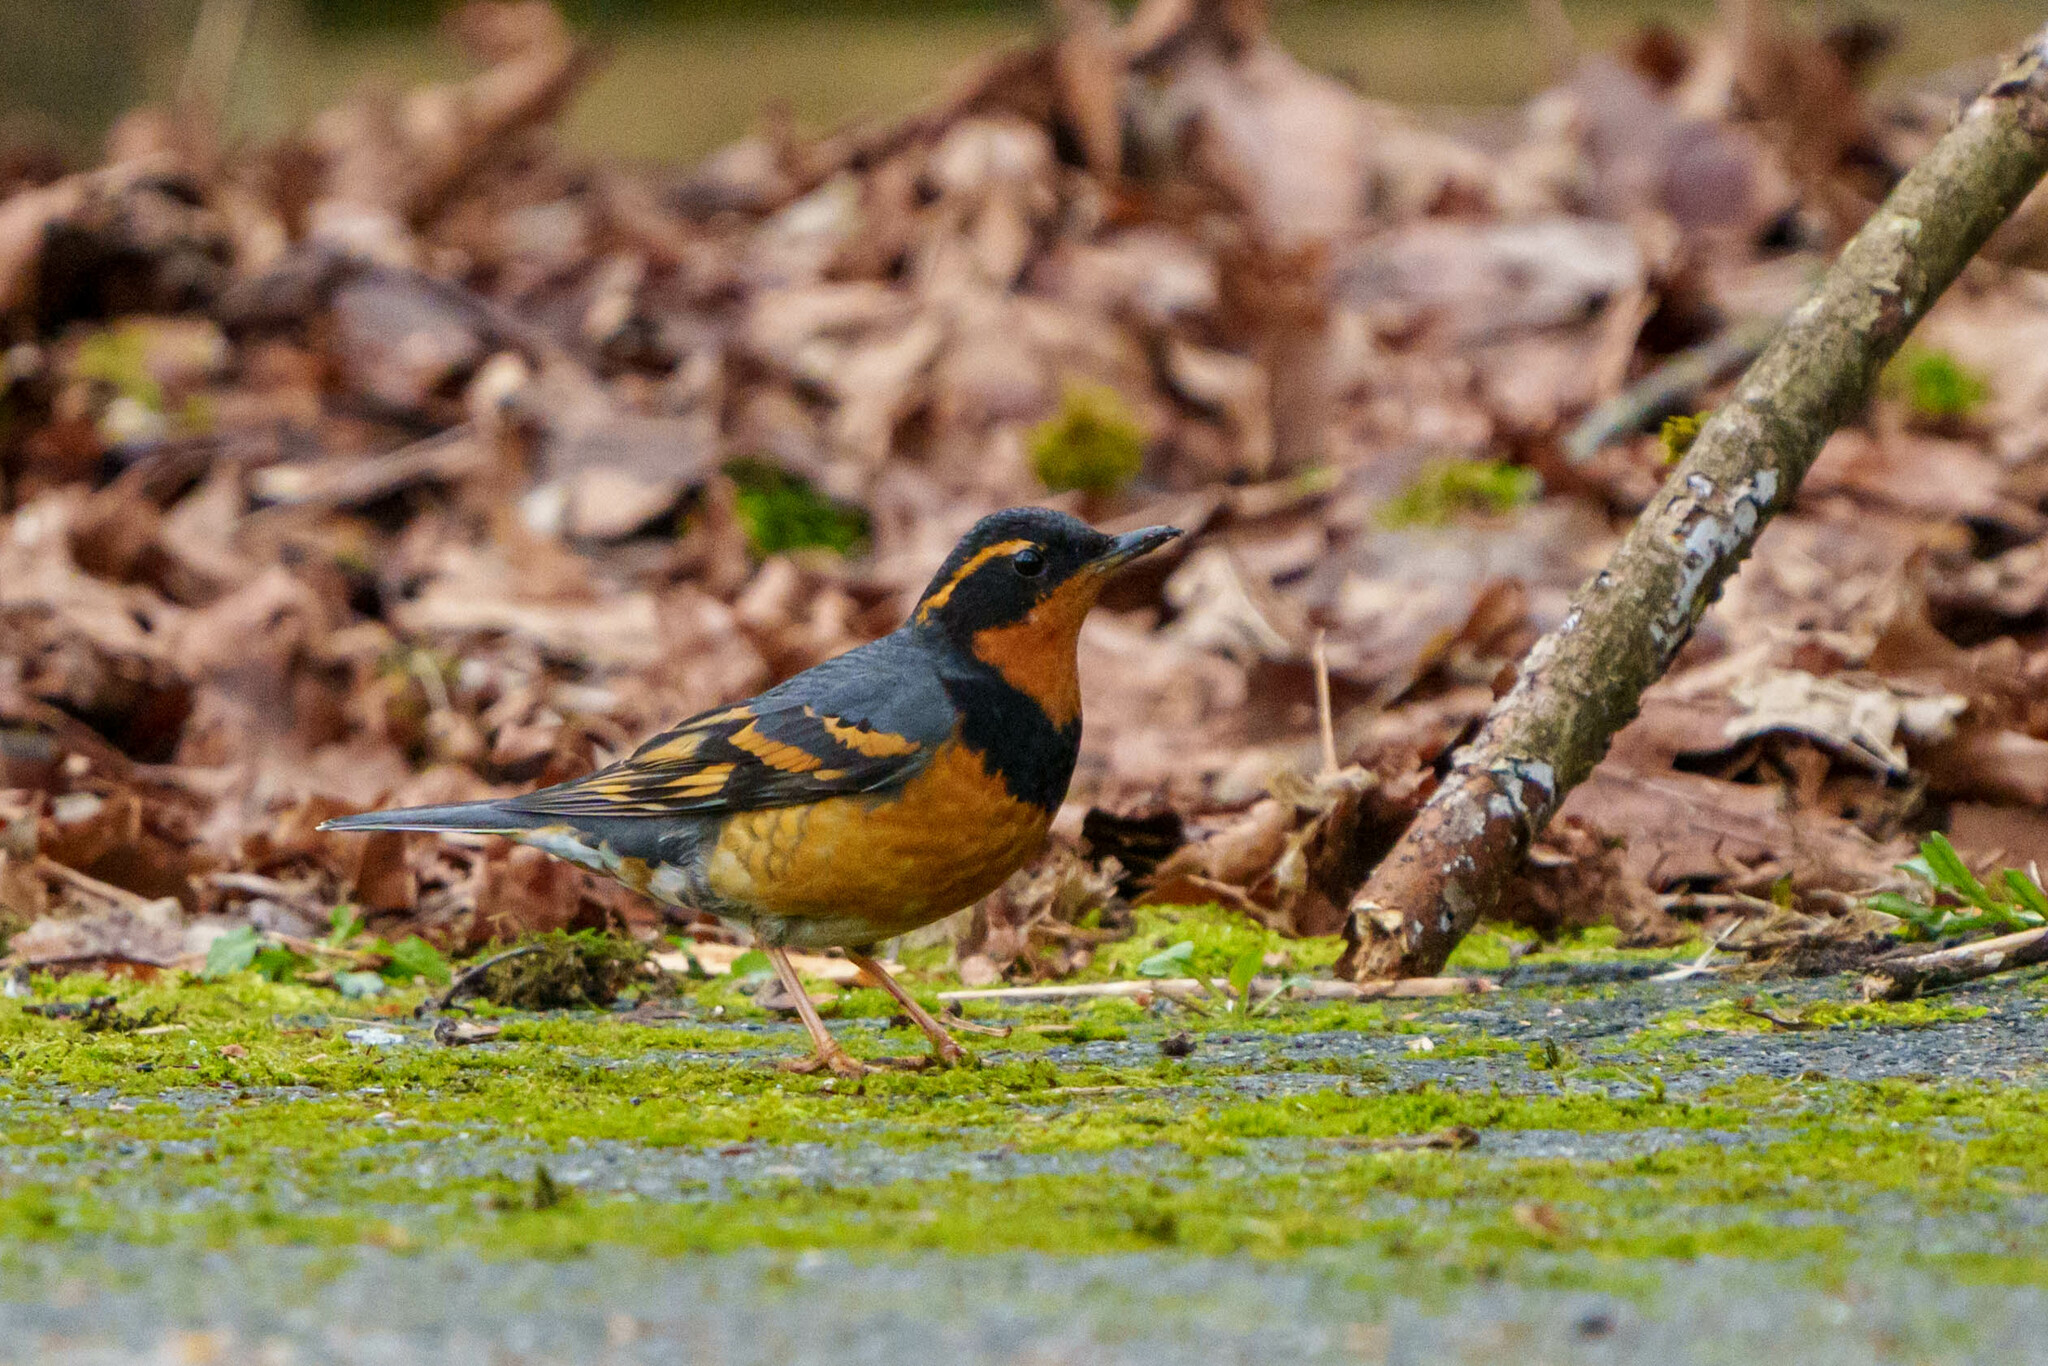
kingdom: Animalia
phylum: Chordata
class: Aves
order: Passeriformes
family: Turdidae
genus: Ixoreus
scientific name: Ixoreus naevius
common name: Varied thrush
